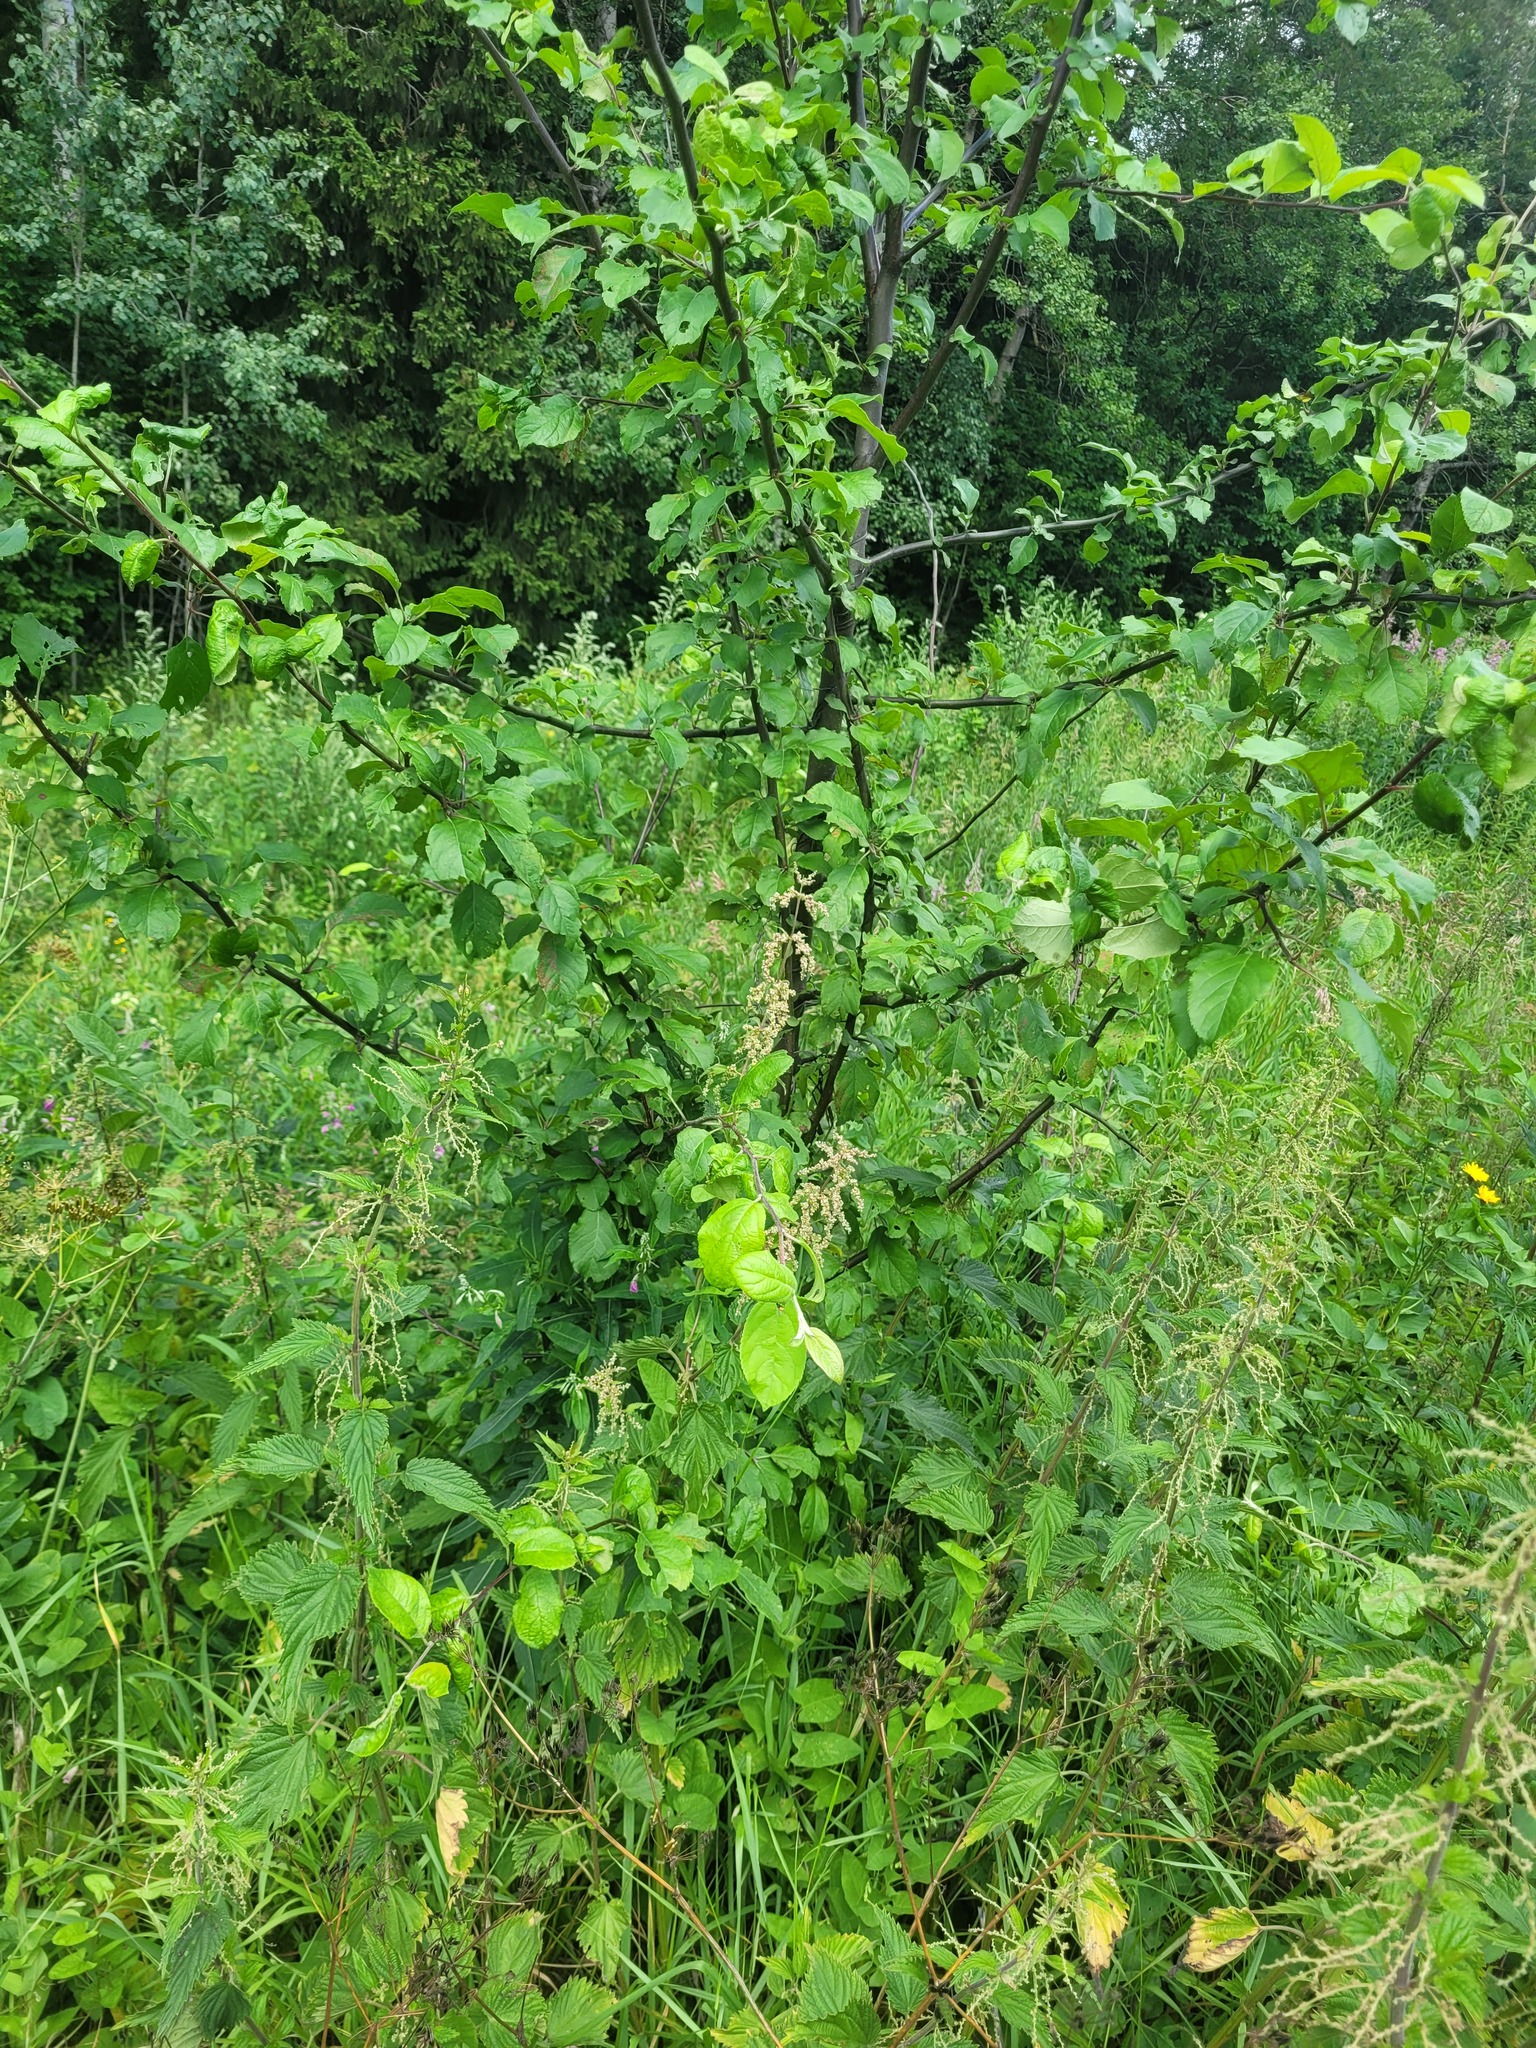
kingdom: Plantae
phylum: Tracheophyta
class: Magnoliopsida
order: Rosales
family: Rosaceae
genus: Malus
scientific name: Malus domestica
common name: Apple
